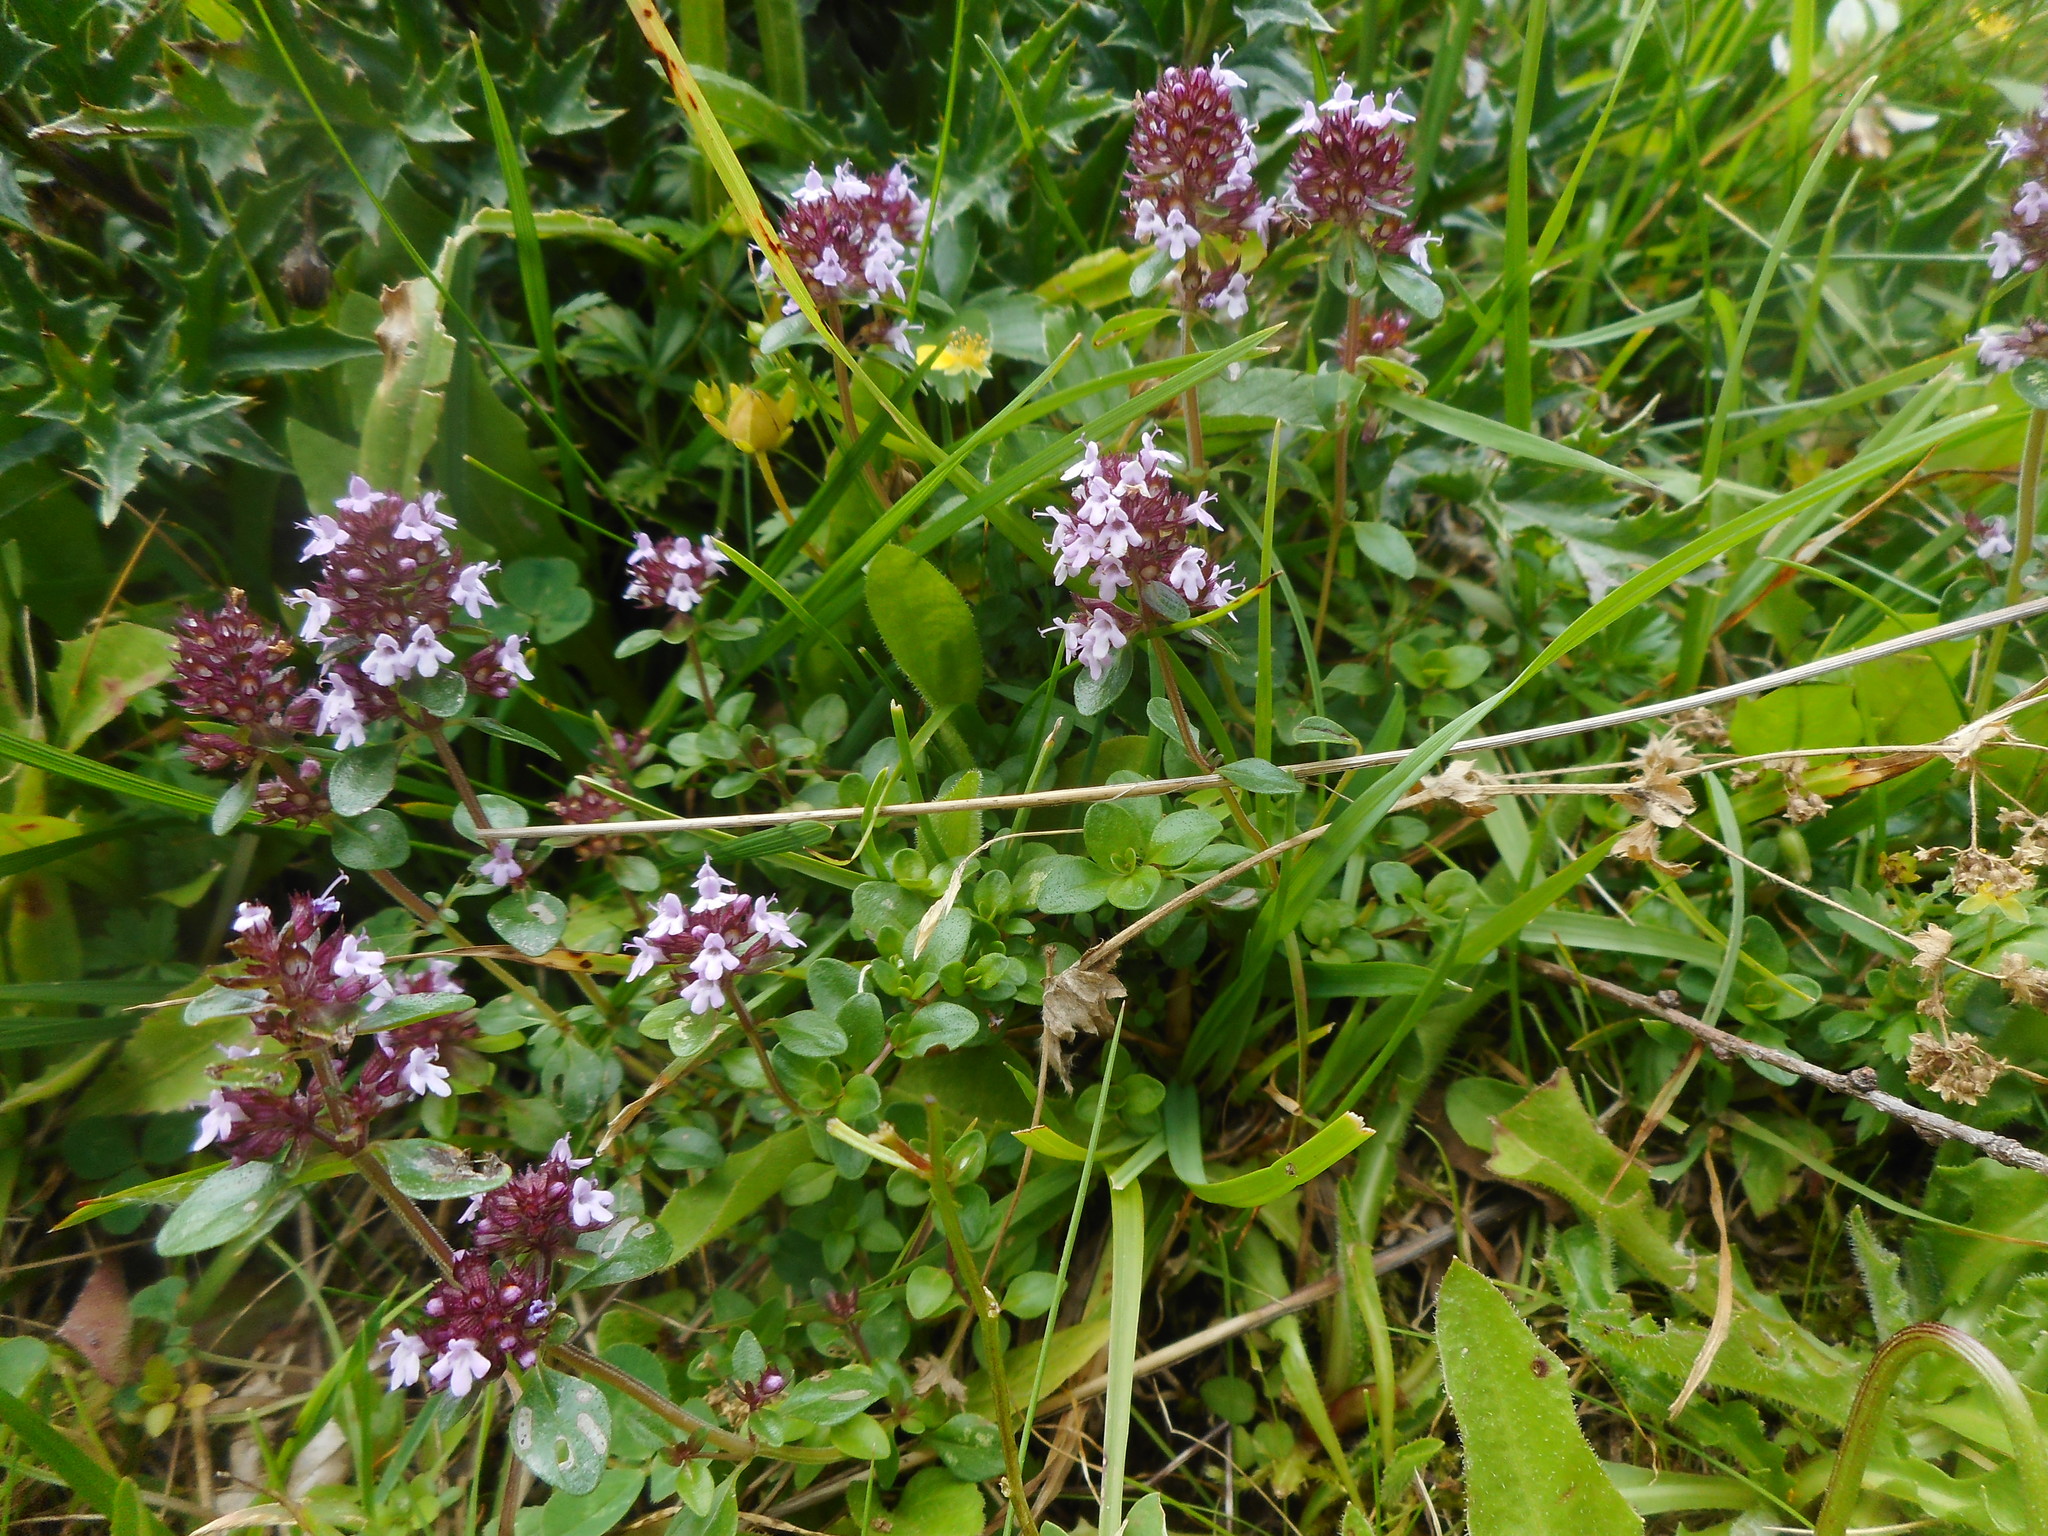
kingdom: Plantae
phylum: Tracheophyta
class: Magnoliopsida
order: Lamiales
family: Lamiaceae
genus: Thymus
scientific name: Thymus pulegioides
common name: Large thyme
